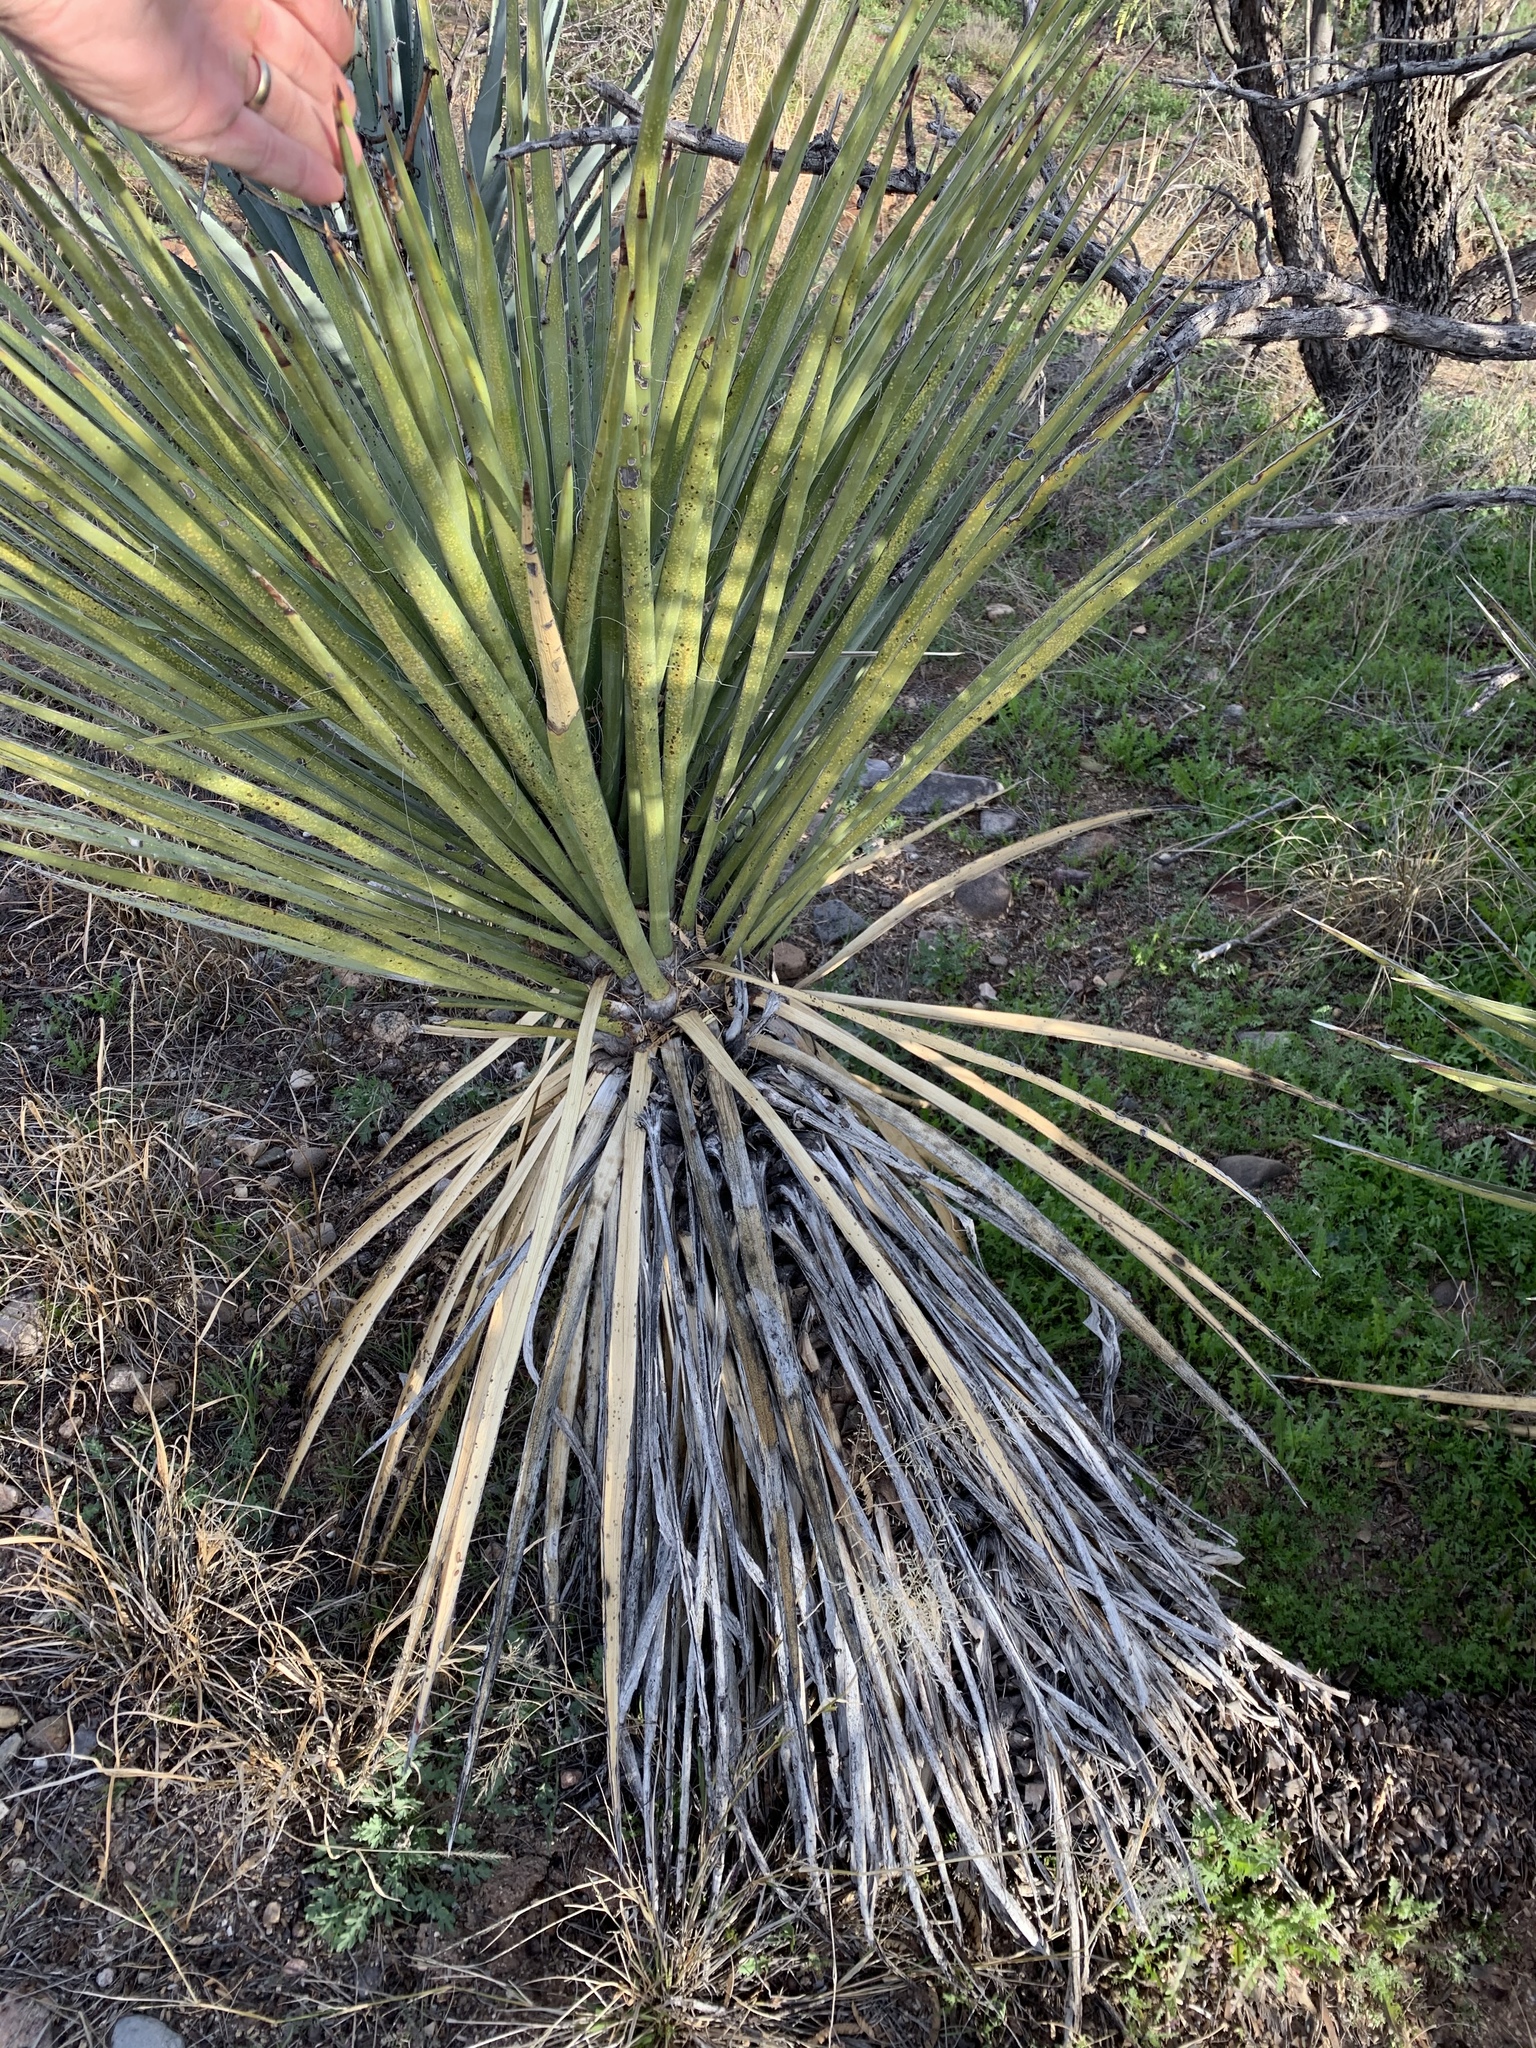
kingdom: Plantae
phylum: Tracheophyta
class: Liliopsida
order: Asparagales
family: Asparagaceae
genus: Yucca
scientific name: Yucca baccata
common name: Banana yucca
